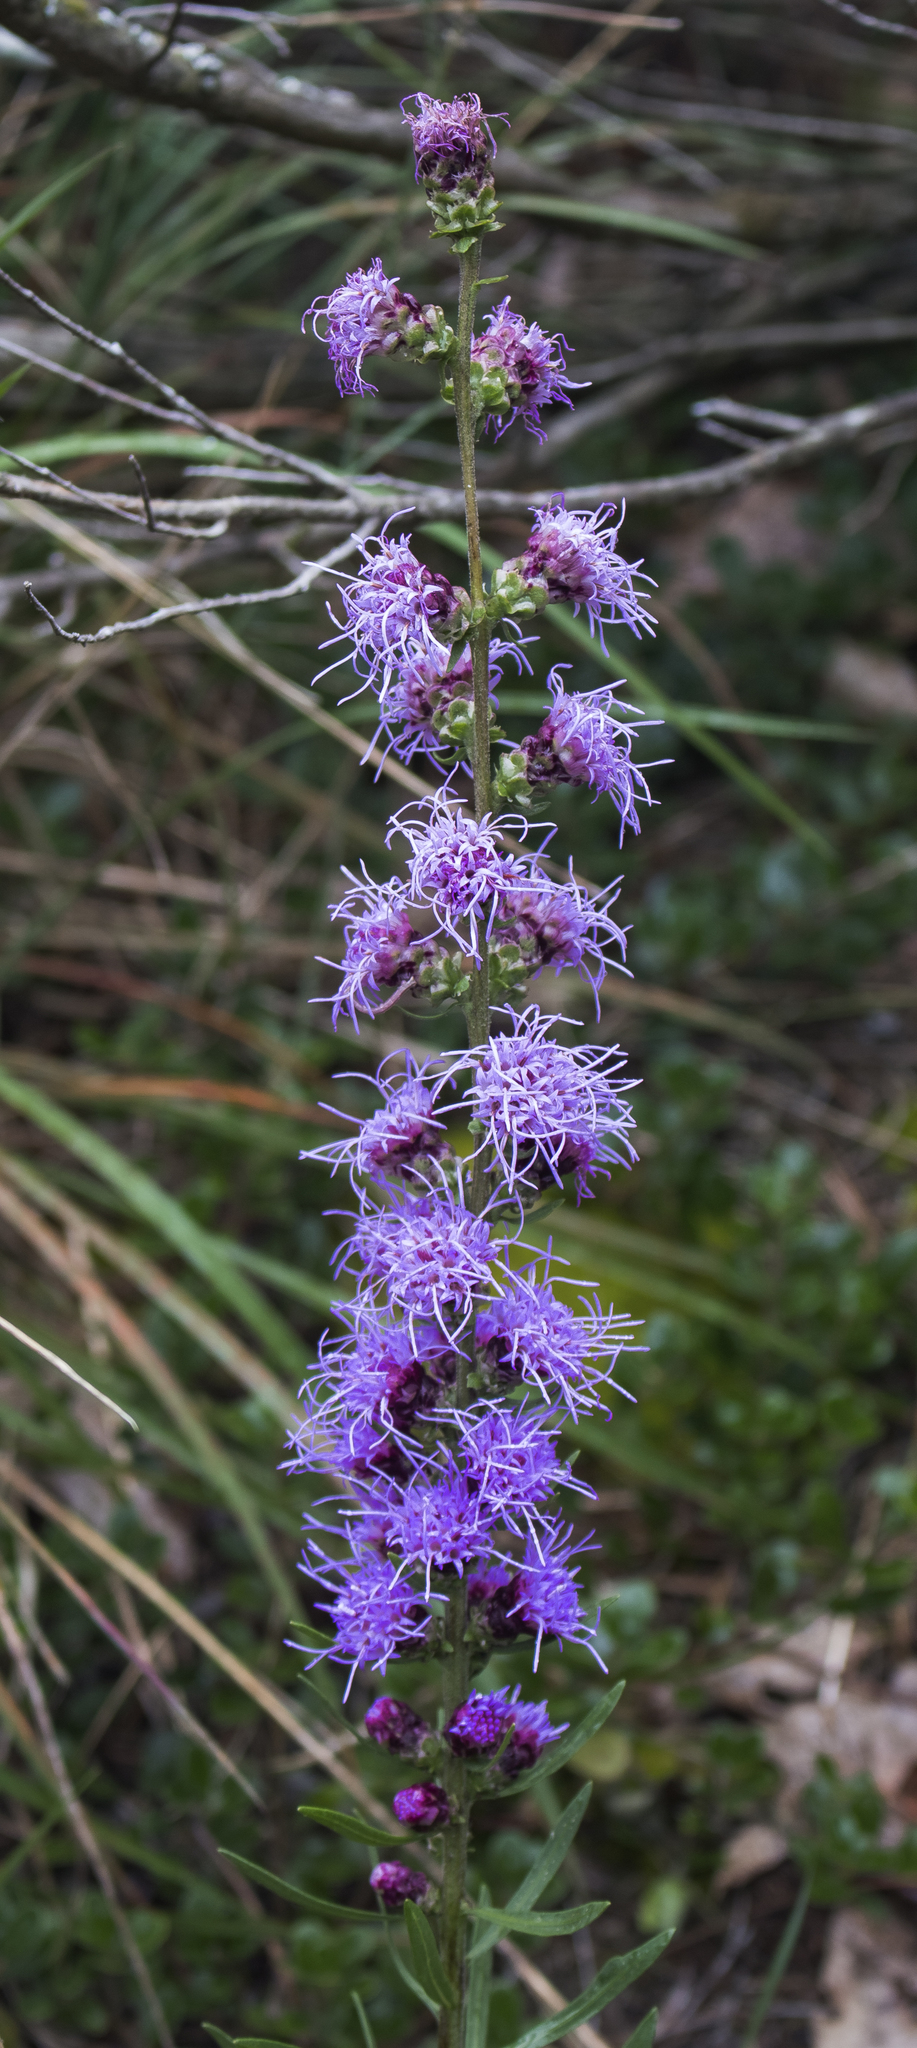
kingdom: Plantae
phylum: Tracheophyta
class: Magnoliopsida
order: Asterales
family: Asteraceae
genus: Liatris
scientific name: Liatris aspera
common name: Lacerate blazing-star
